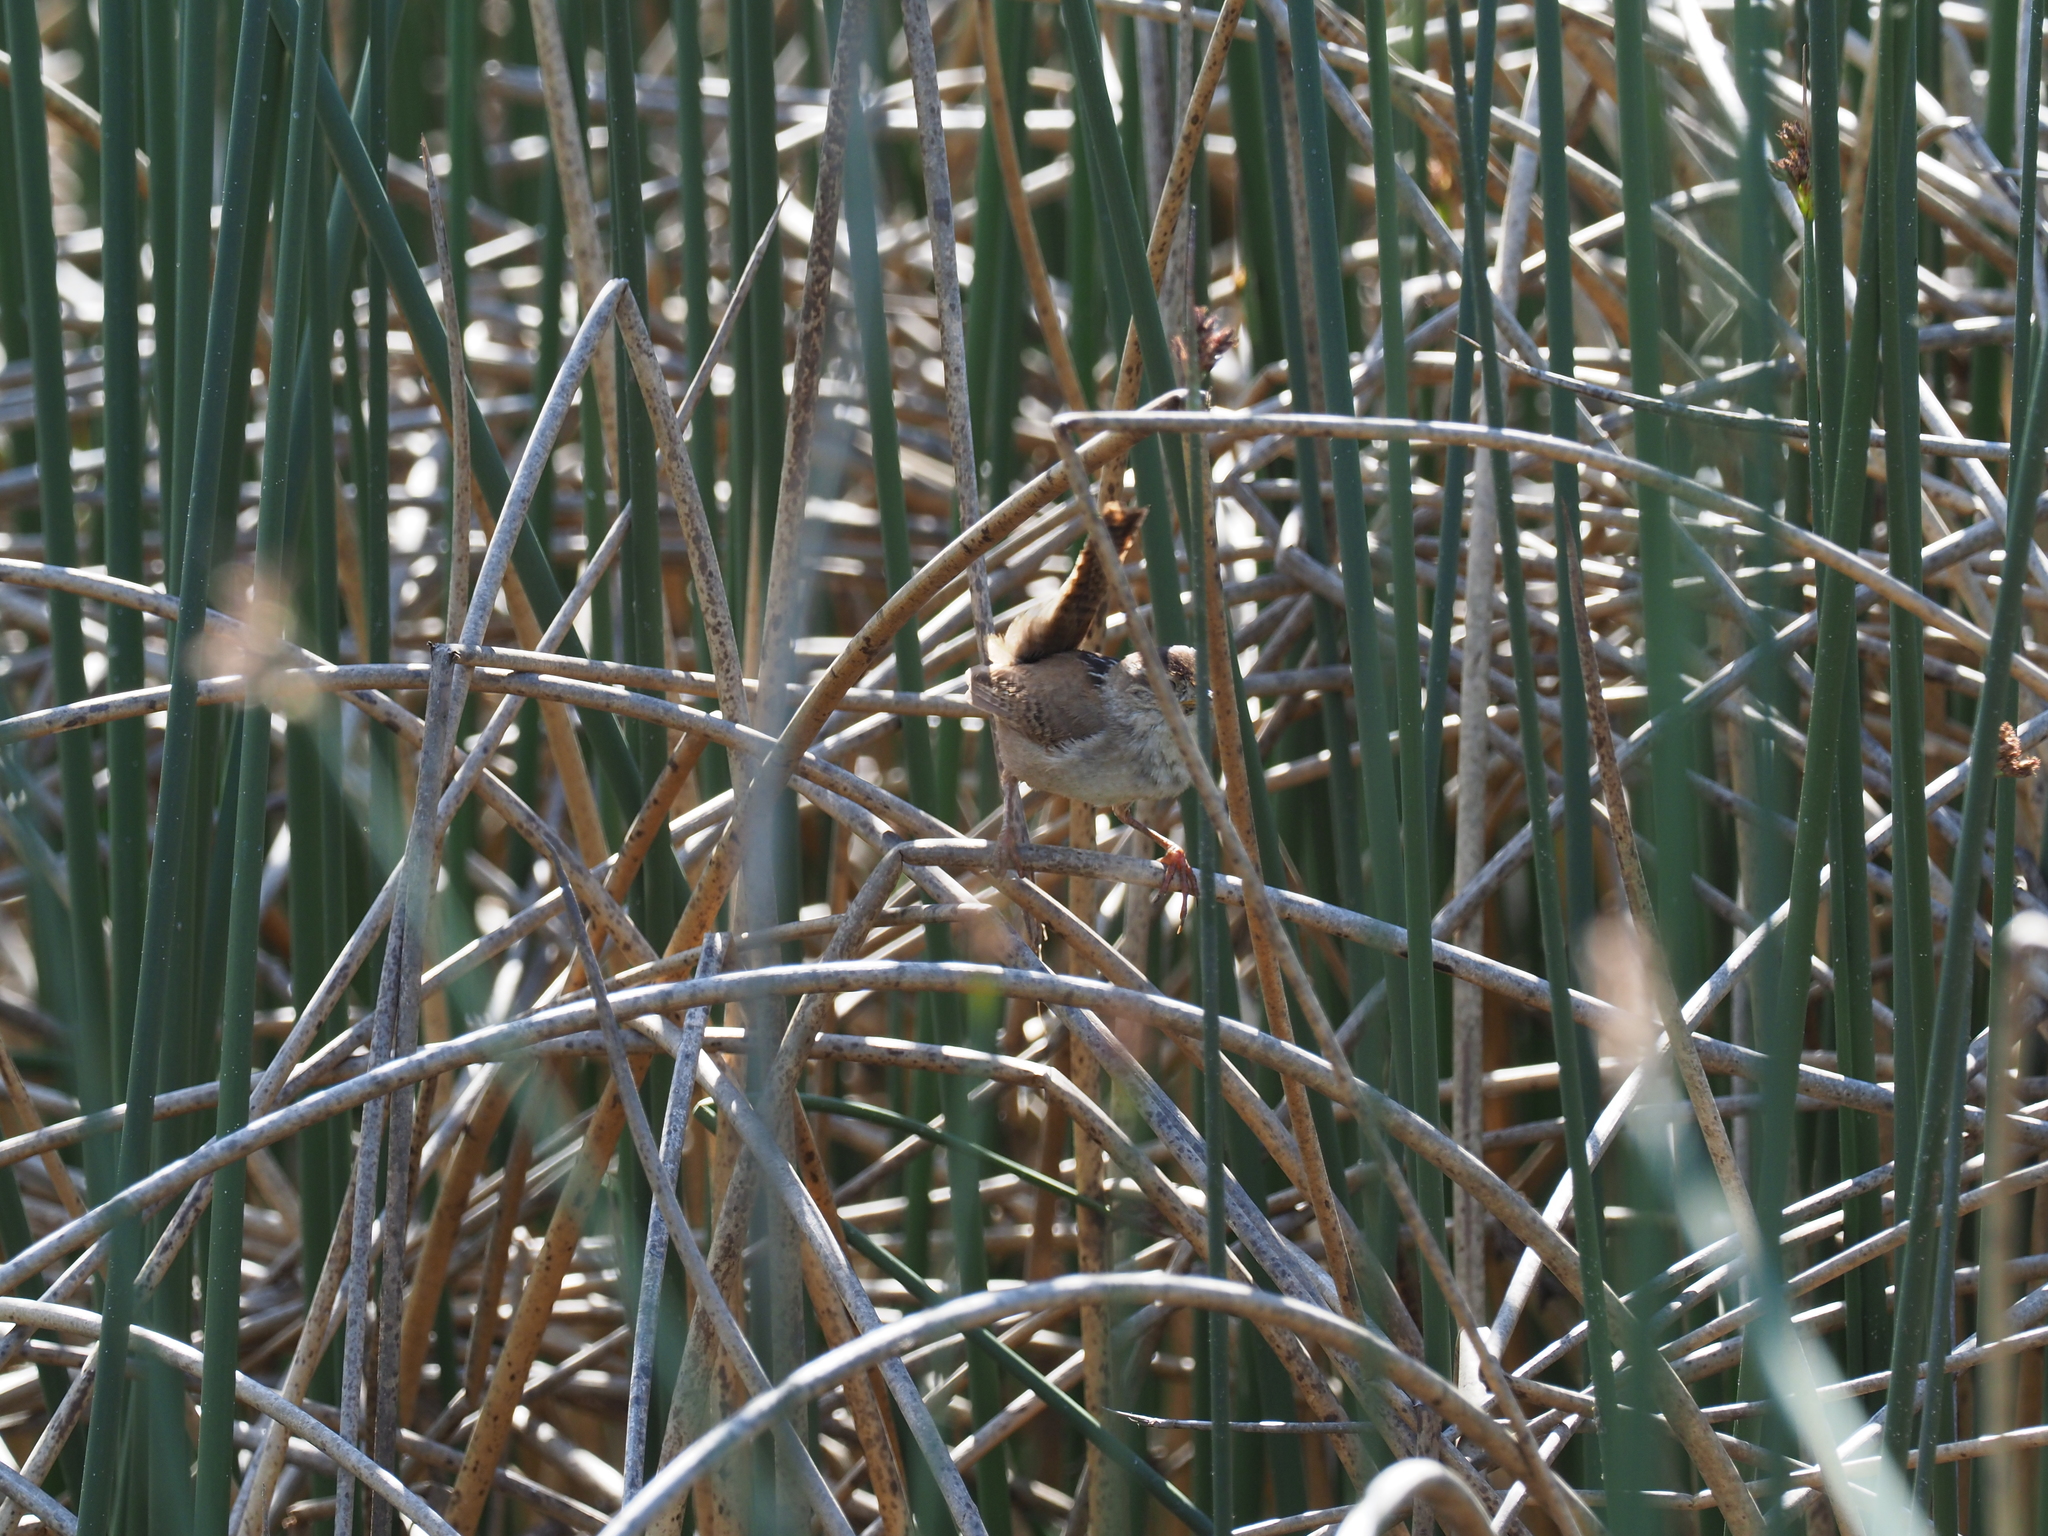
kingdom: Animalia
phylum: Chordata
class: Aves
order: Passeriformes
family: Troglodytidae
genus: Cistothorus
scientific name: Cistothorus palustris
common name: Marsh wren
